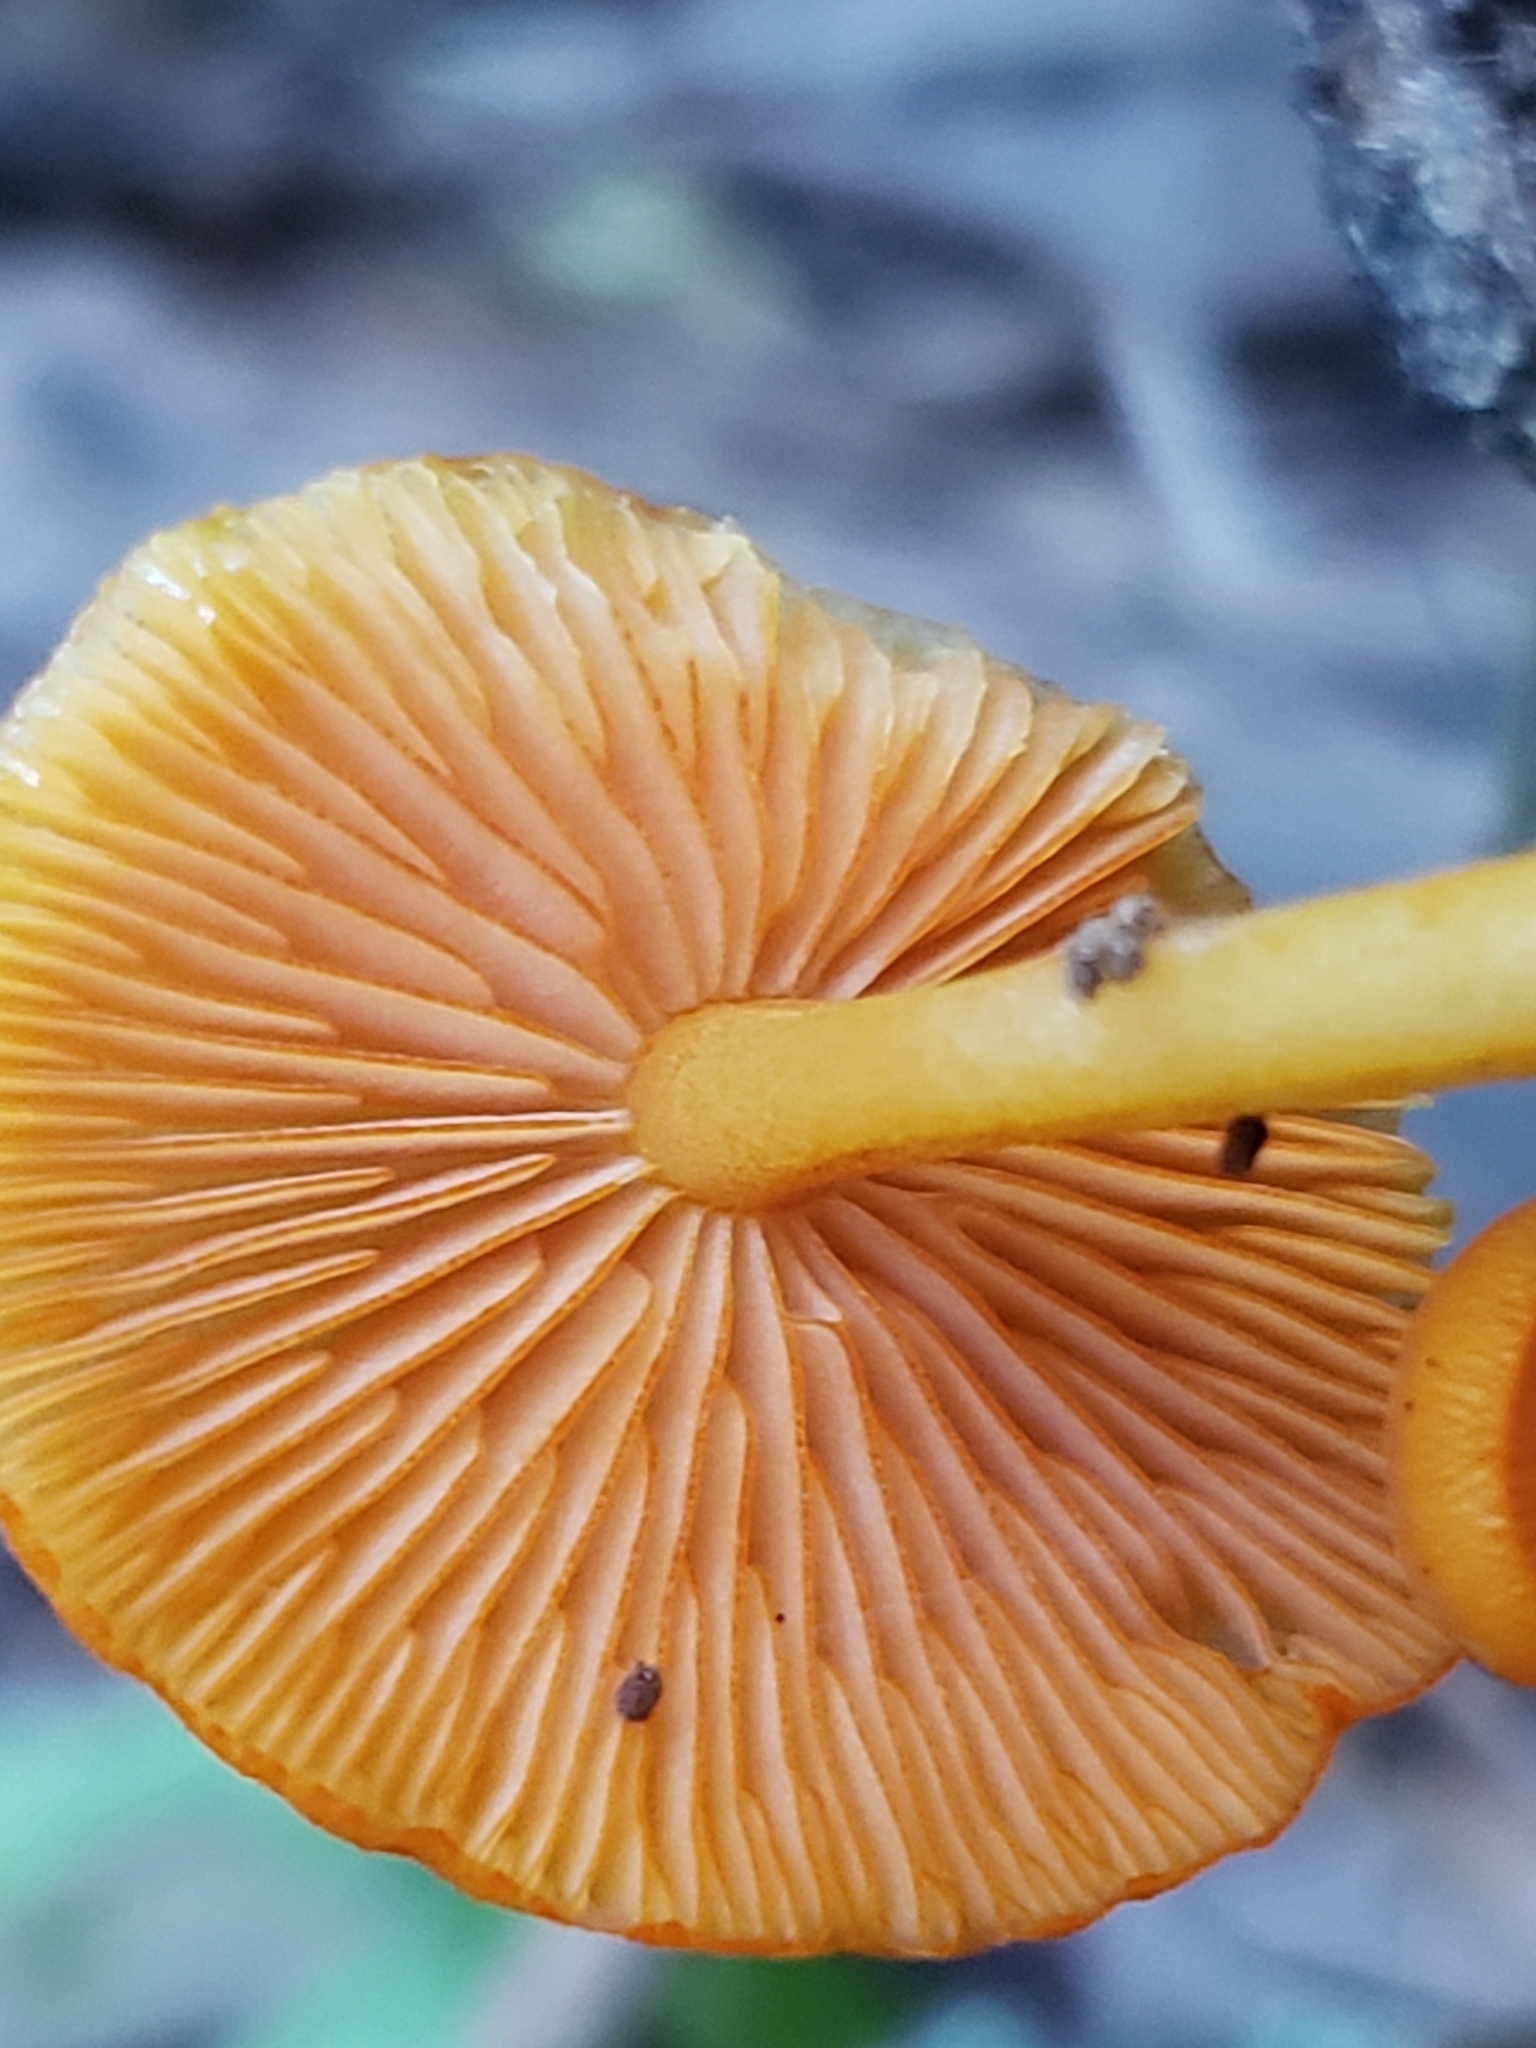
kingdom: Fungi
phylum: Basidiomycota
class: Agaricomycetes
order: Agaricales
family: Mycenaceae
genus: Mycena
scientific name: Mycena leaiana
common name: Orange mycena
